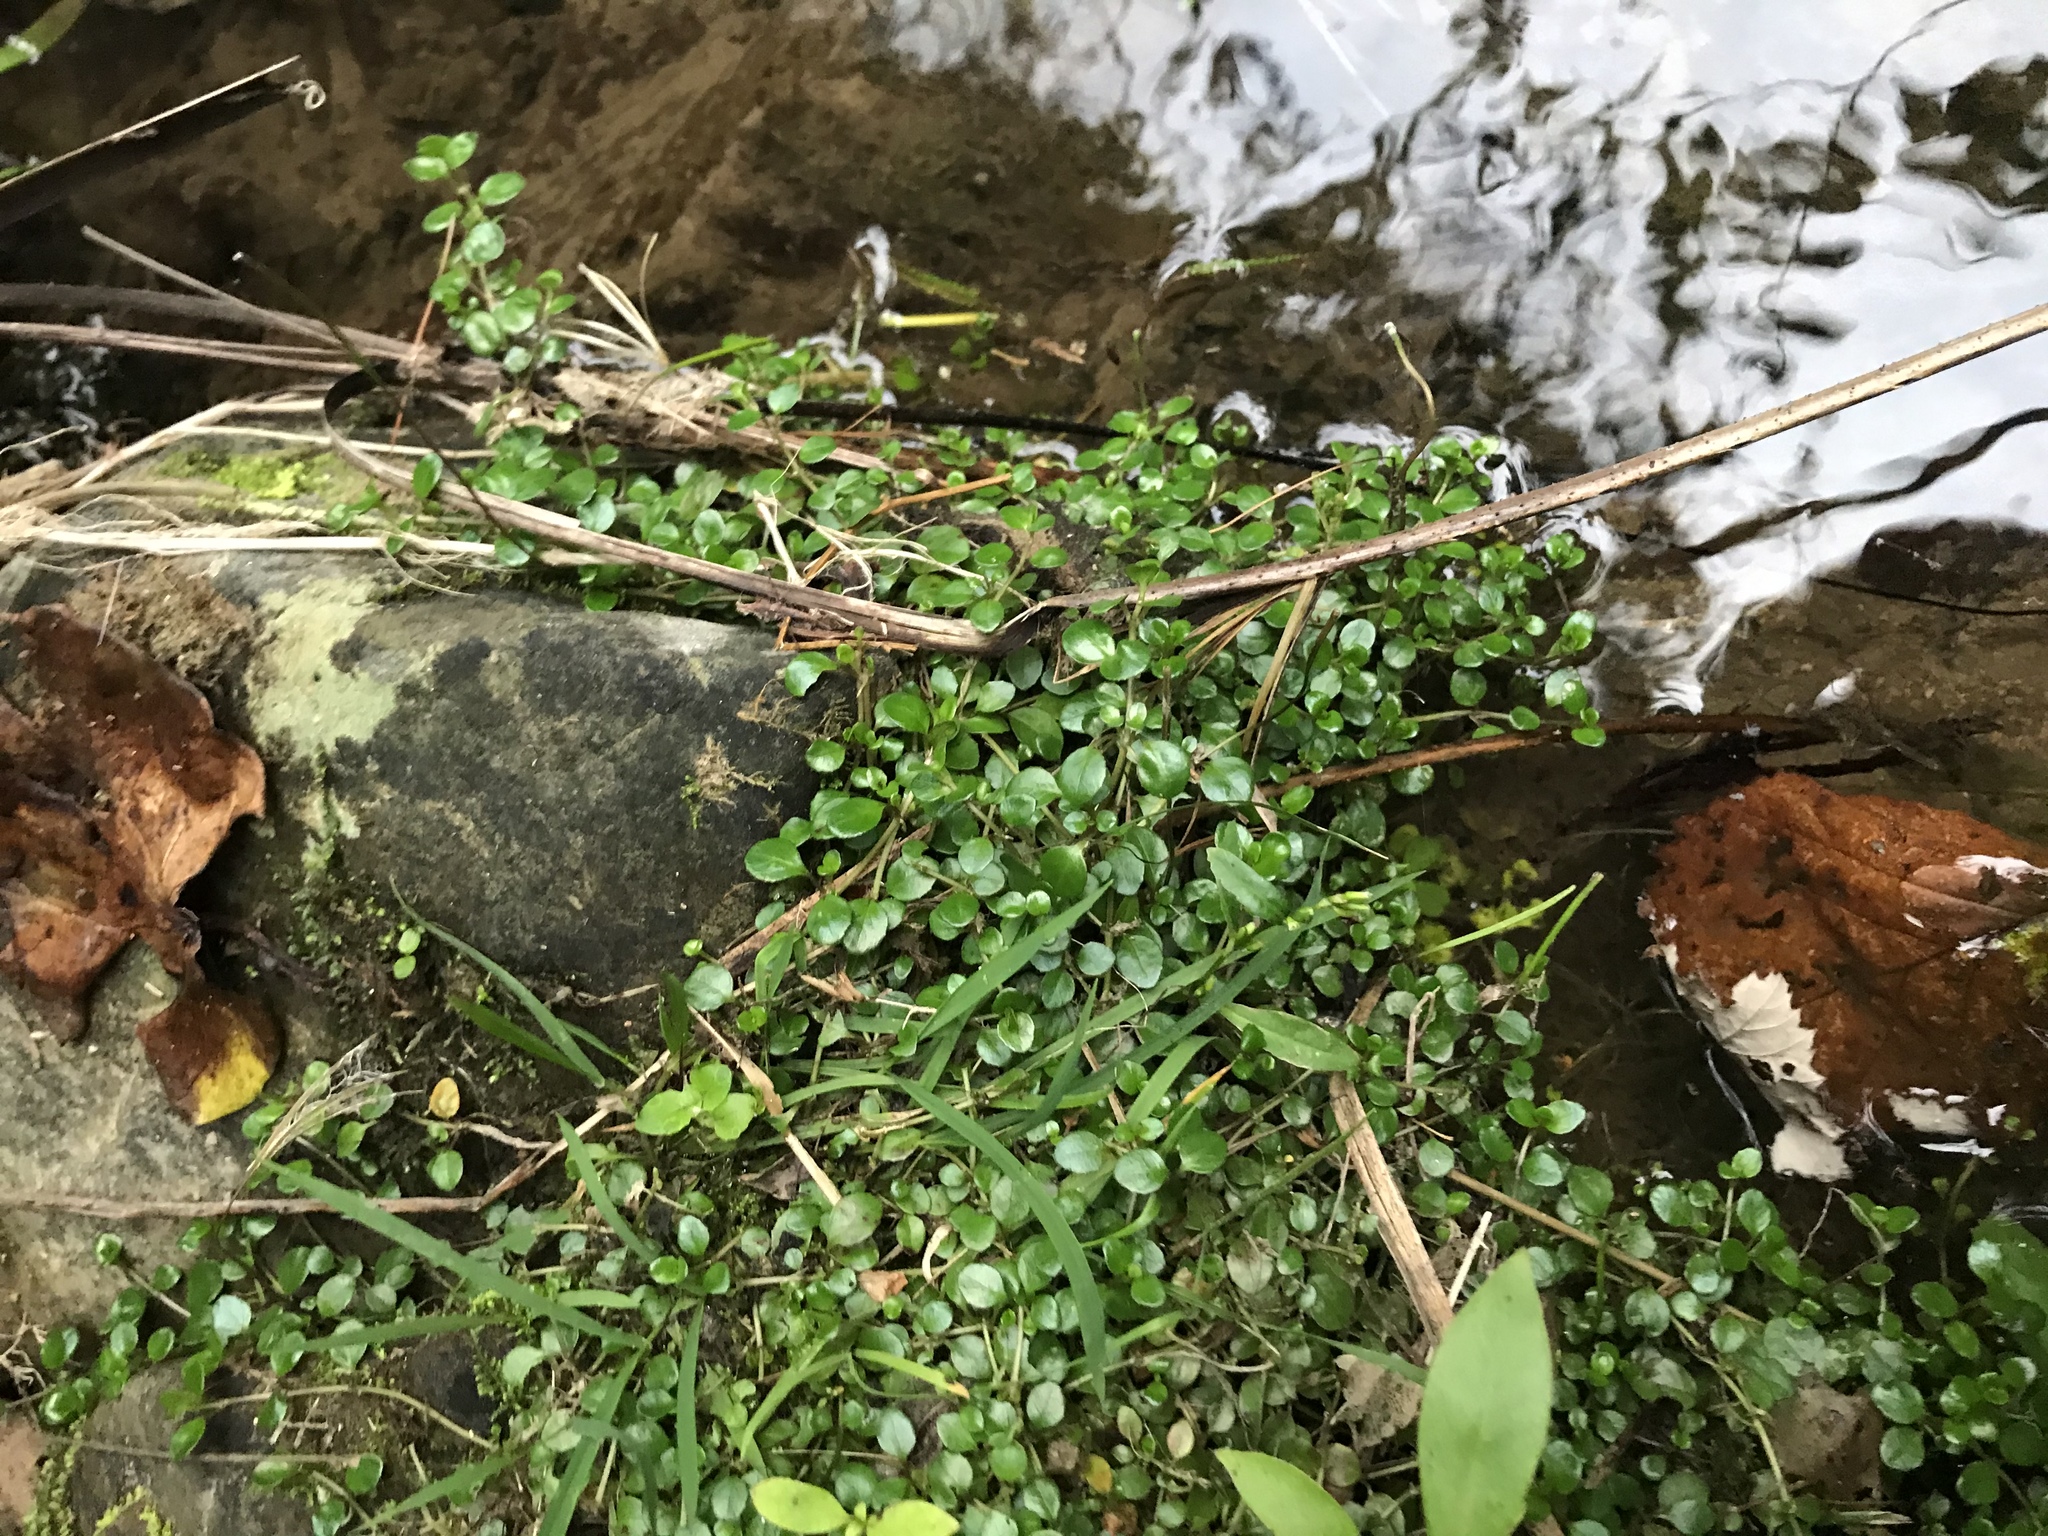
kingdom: Plantae
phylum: Tracheophyta
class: Magnoliopsida
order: Myrtales
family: Onagraceae
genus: Epilobium
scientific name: Epilobium brunnescens
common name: New zealand willowherb
